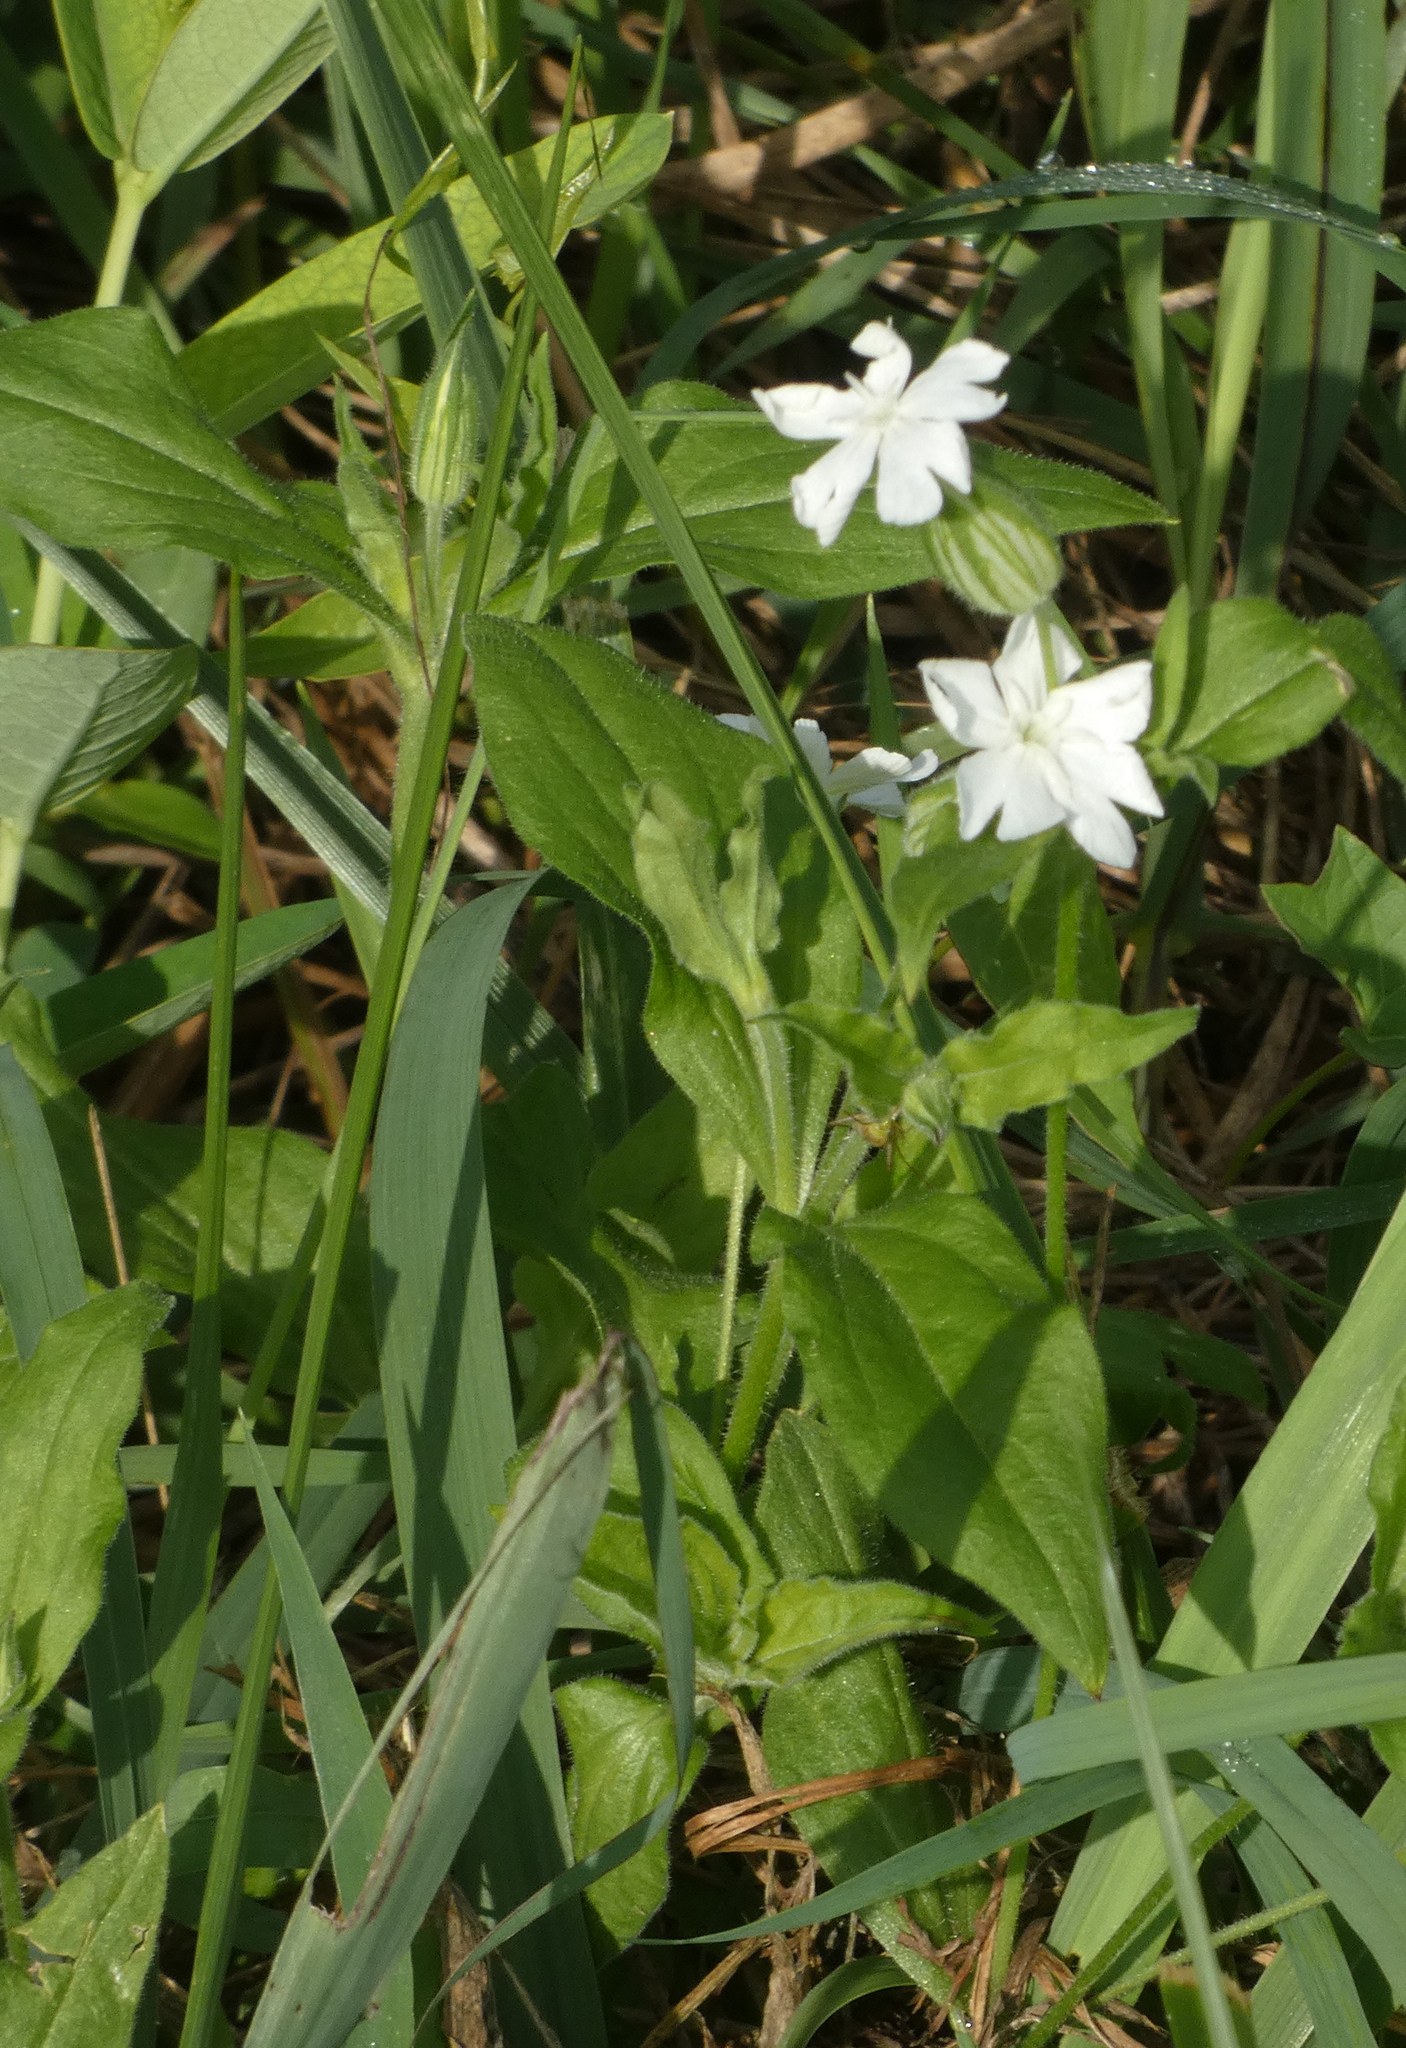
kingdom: Plantae
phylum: Tracheophyta
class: Magnoliopsida
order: Caryophyllales
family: Caryophyllaceae
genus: Silene
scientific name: Silene latifolia
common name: White campion
